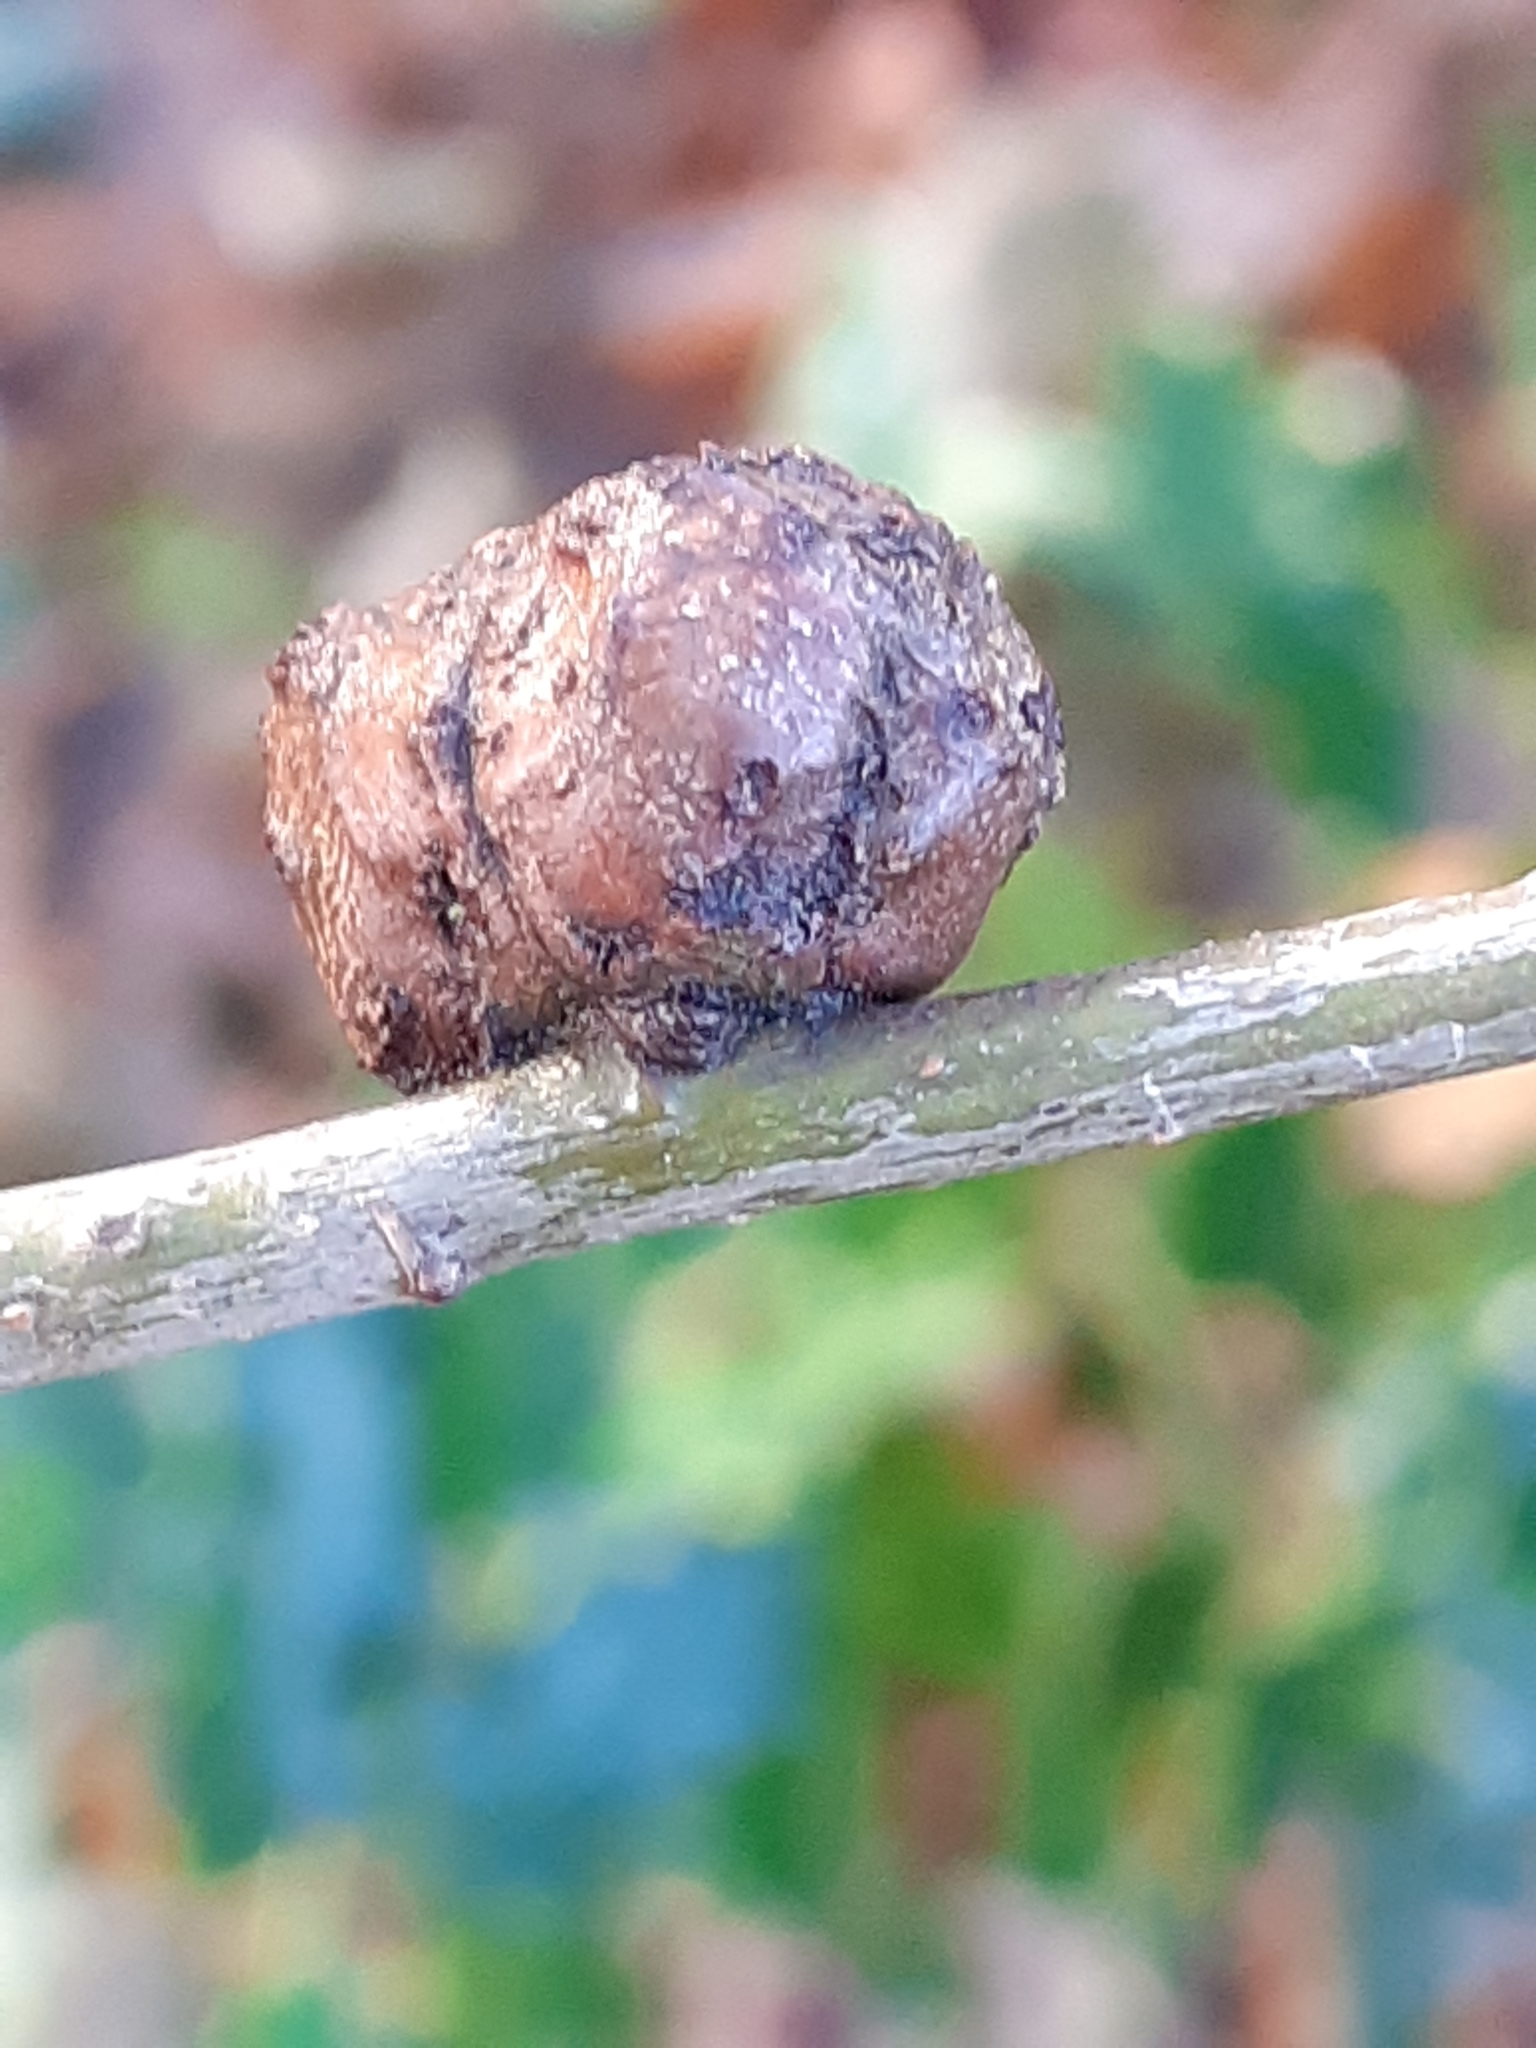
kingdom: Animalia
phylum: Arthropoda
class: Insecta
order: Hymenoptera
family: Cynipidae
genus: Andricus
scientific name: Andricus lignicolus
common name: Cola-nut gall
